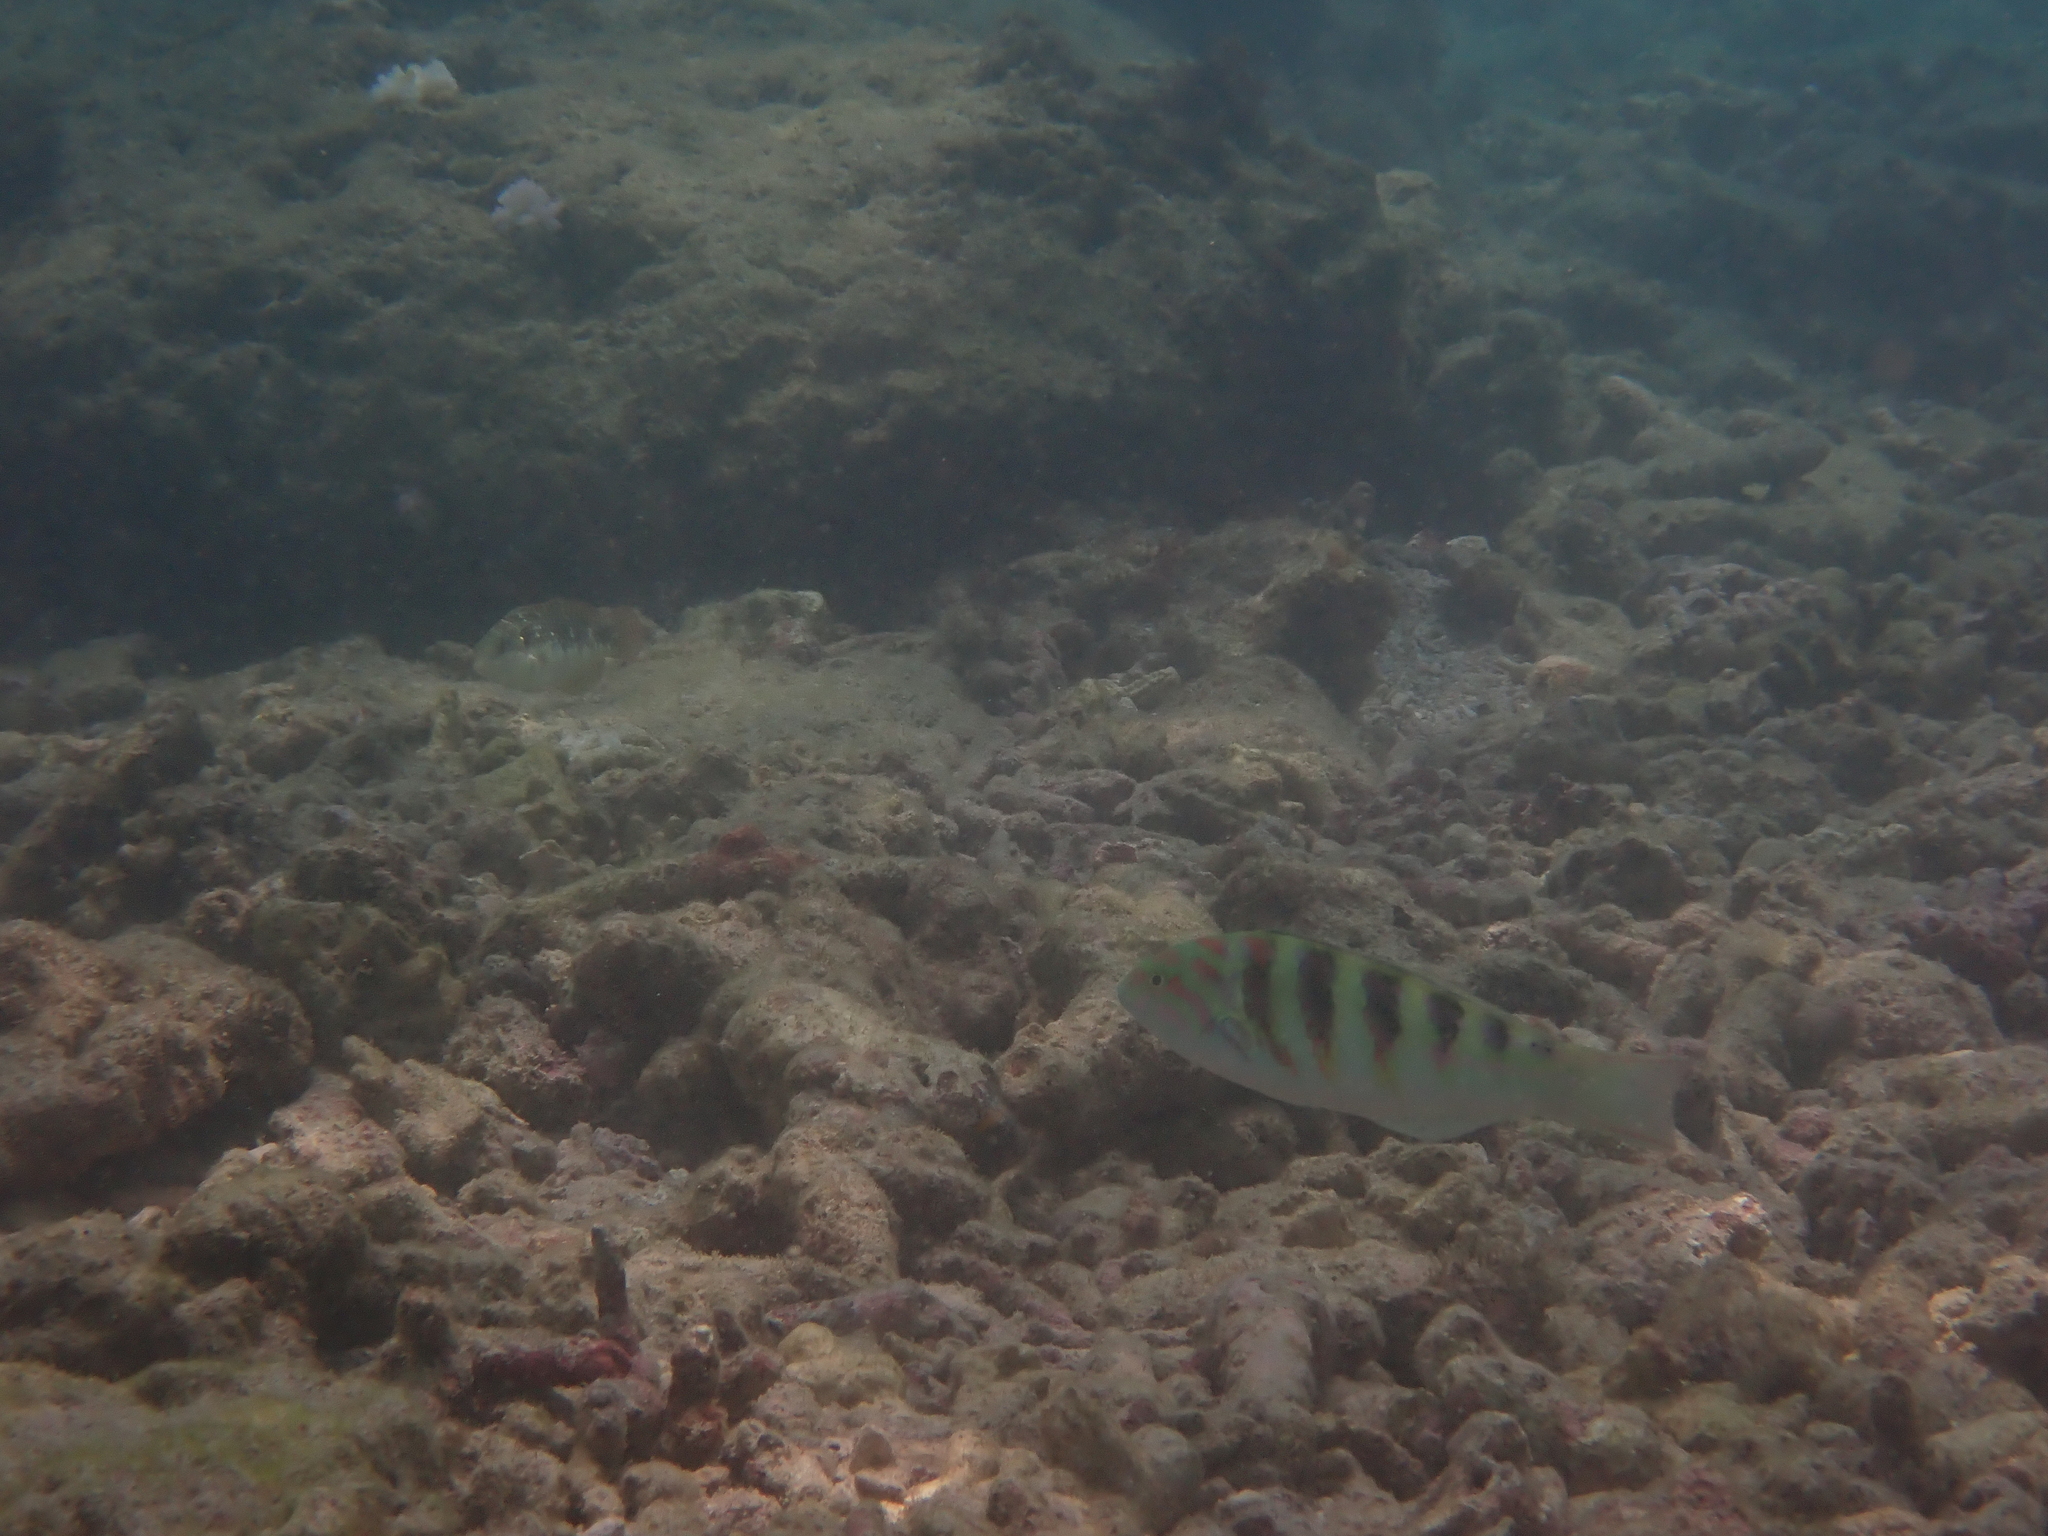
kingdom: Animalia
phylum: Chordata
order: Perciformes
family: Labridae
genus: Thalassoma
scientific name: Thalassoma hardwicke
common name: Sixbar wrasse
